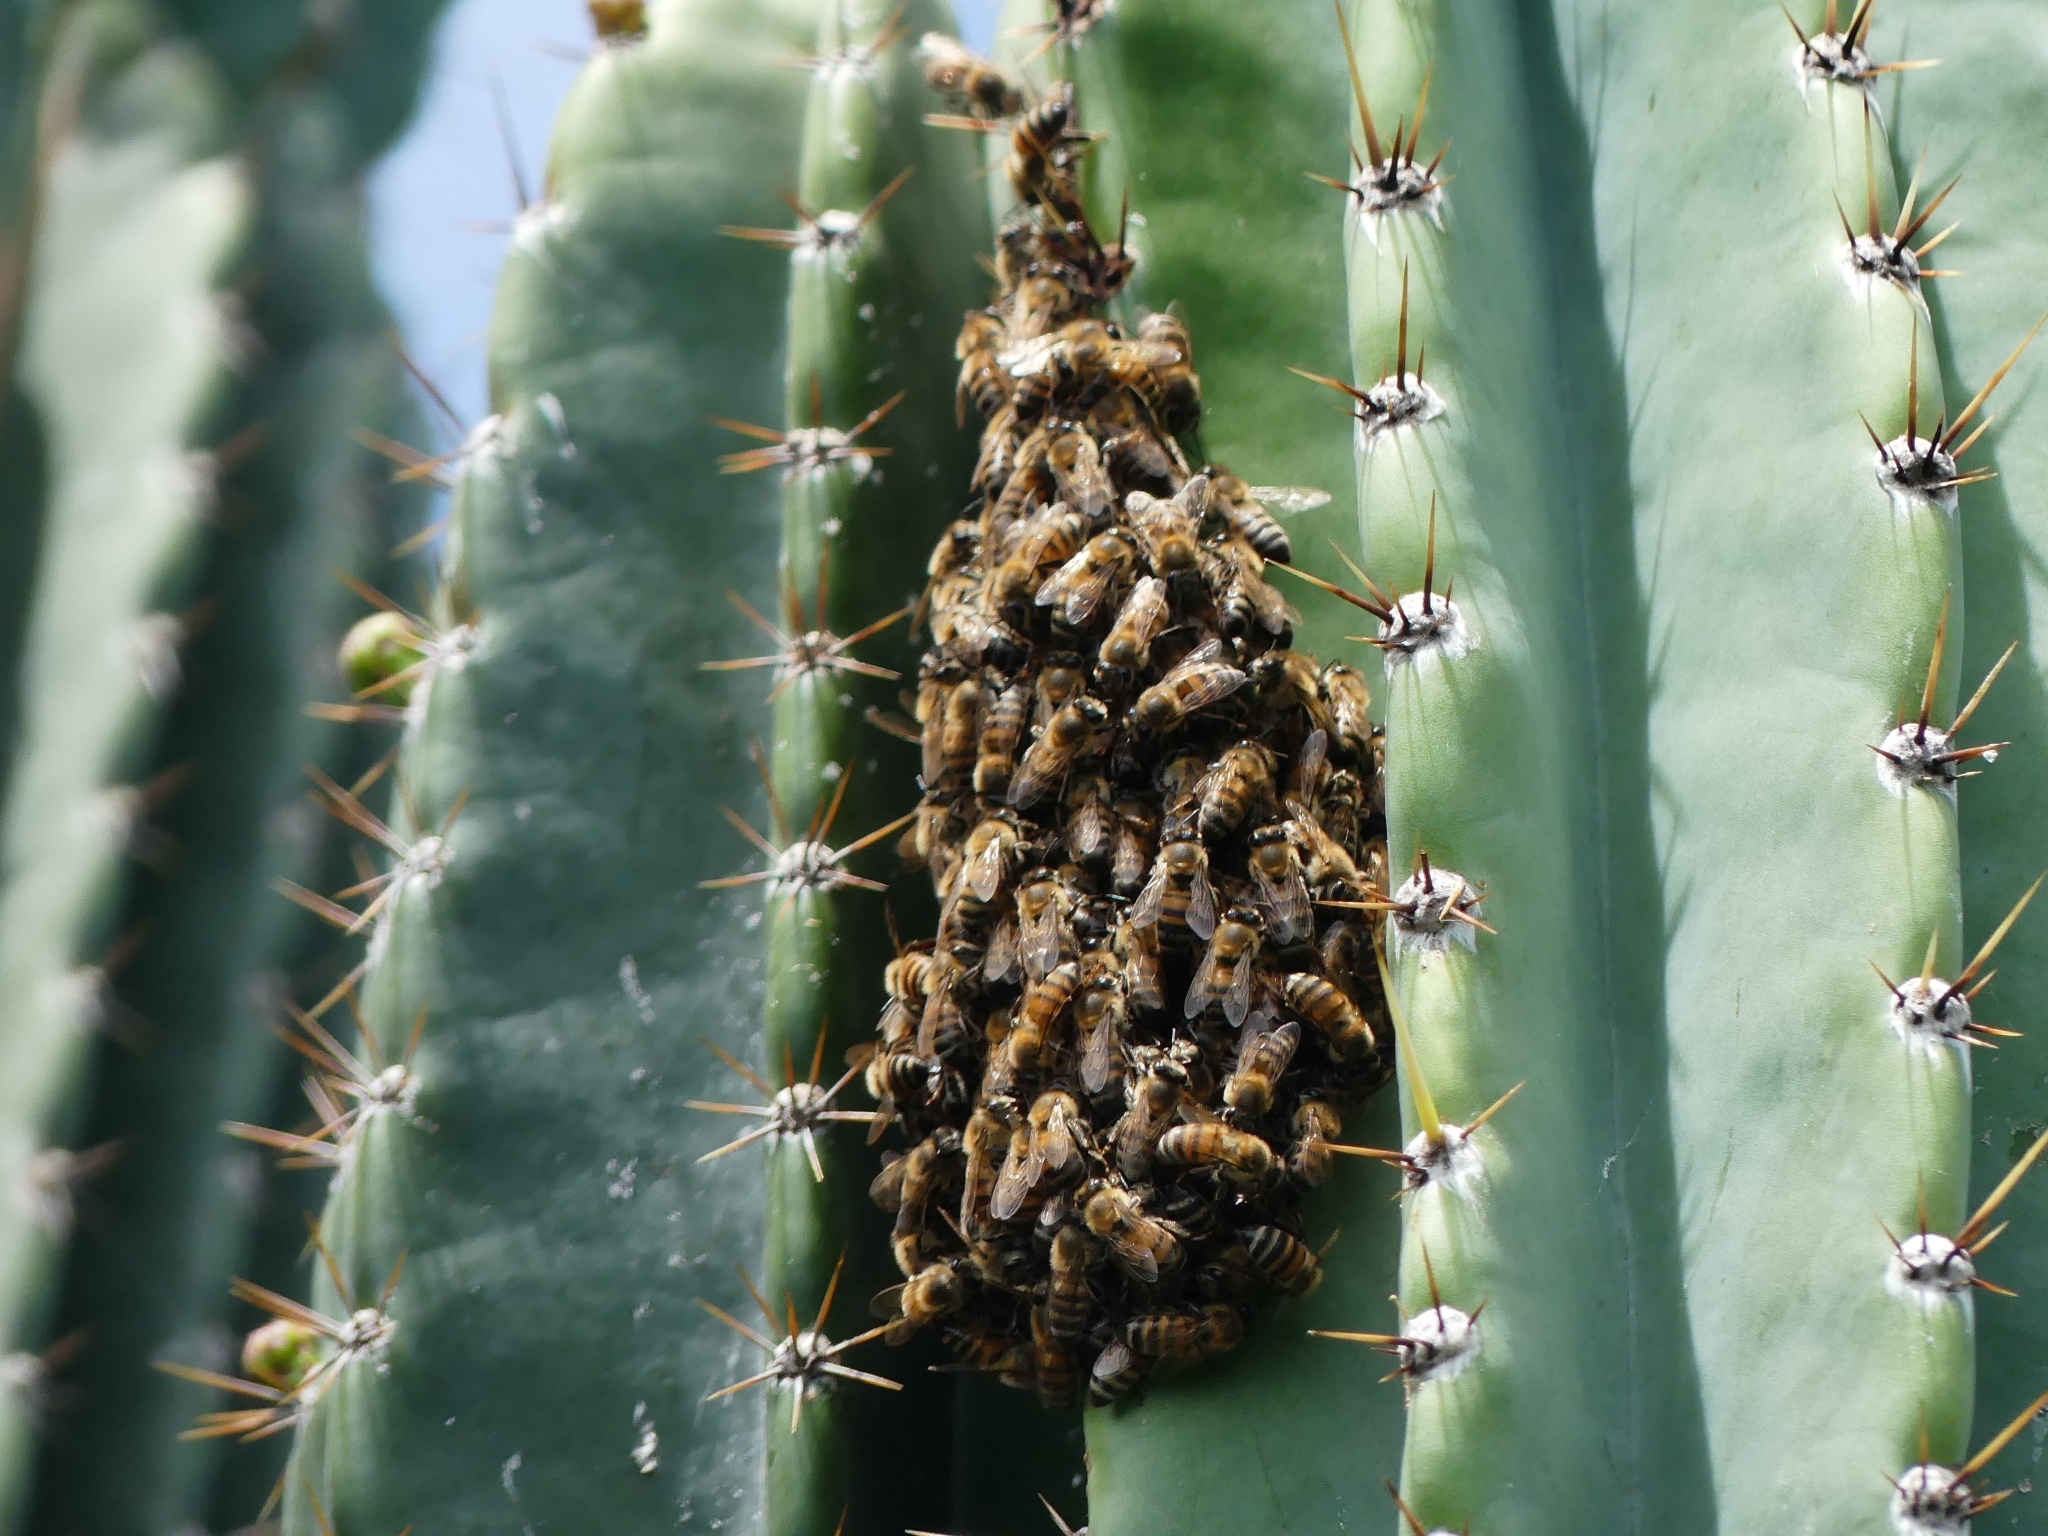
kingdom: Animalia
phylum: Arthropoda
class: Insecta
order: Hymenoptera
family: Apidae
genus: Apis
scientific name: Apis mellifera
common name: Honey bee
